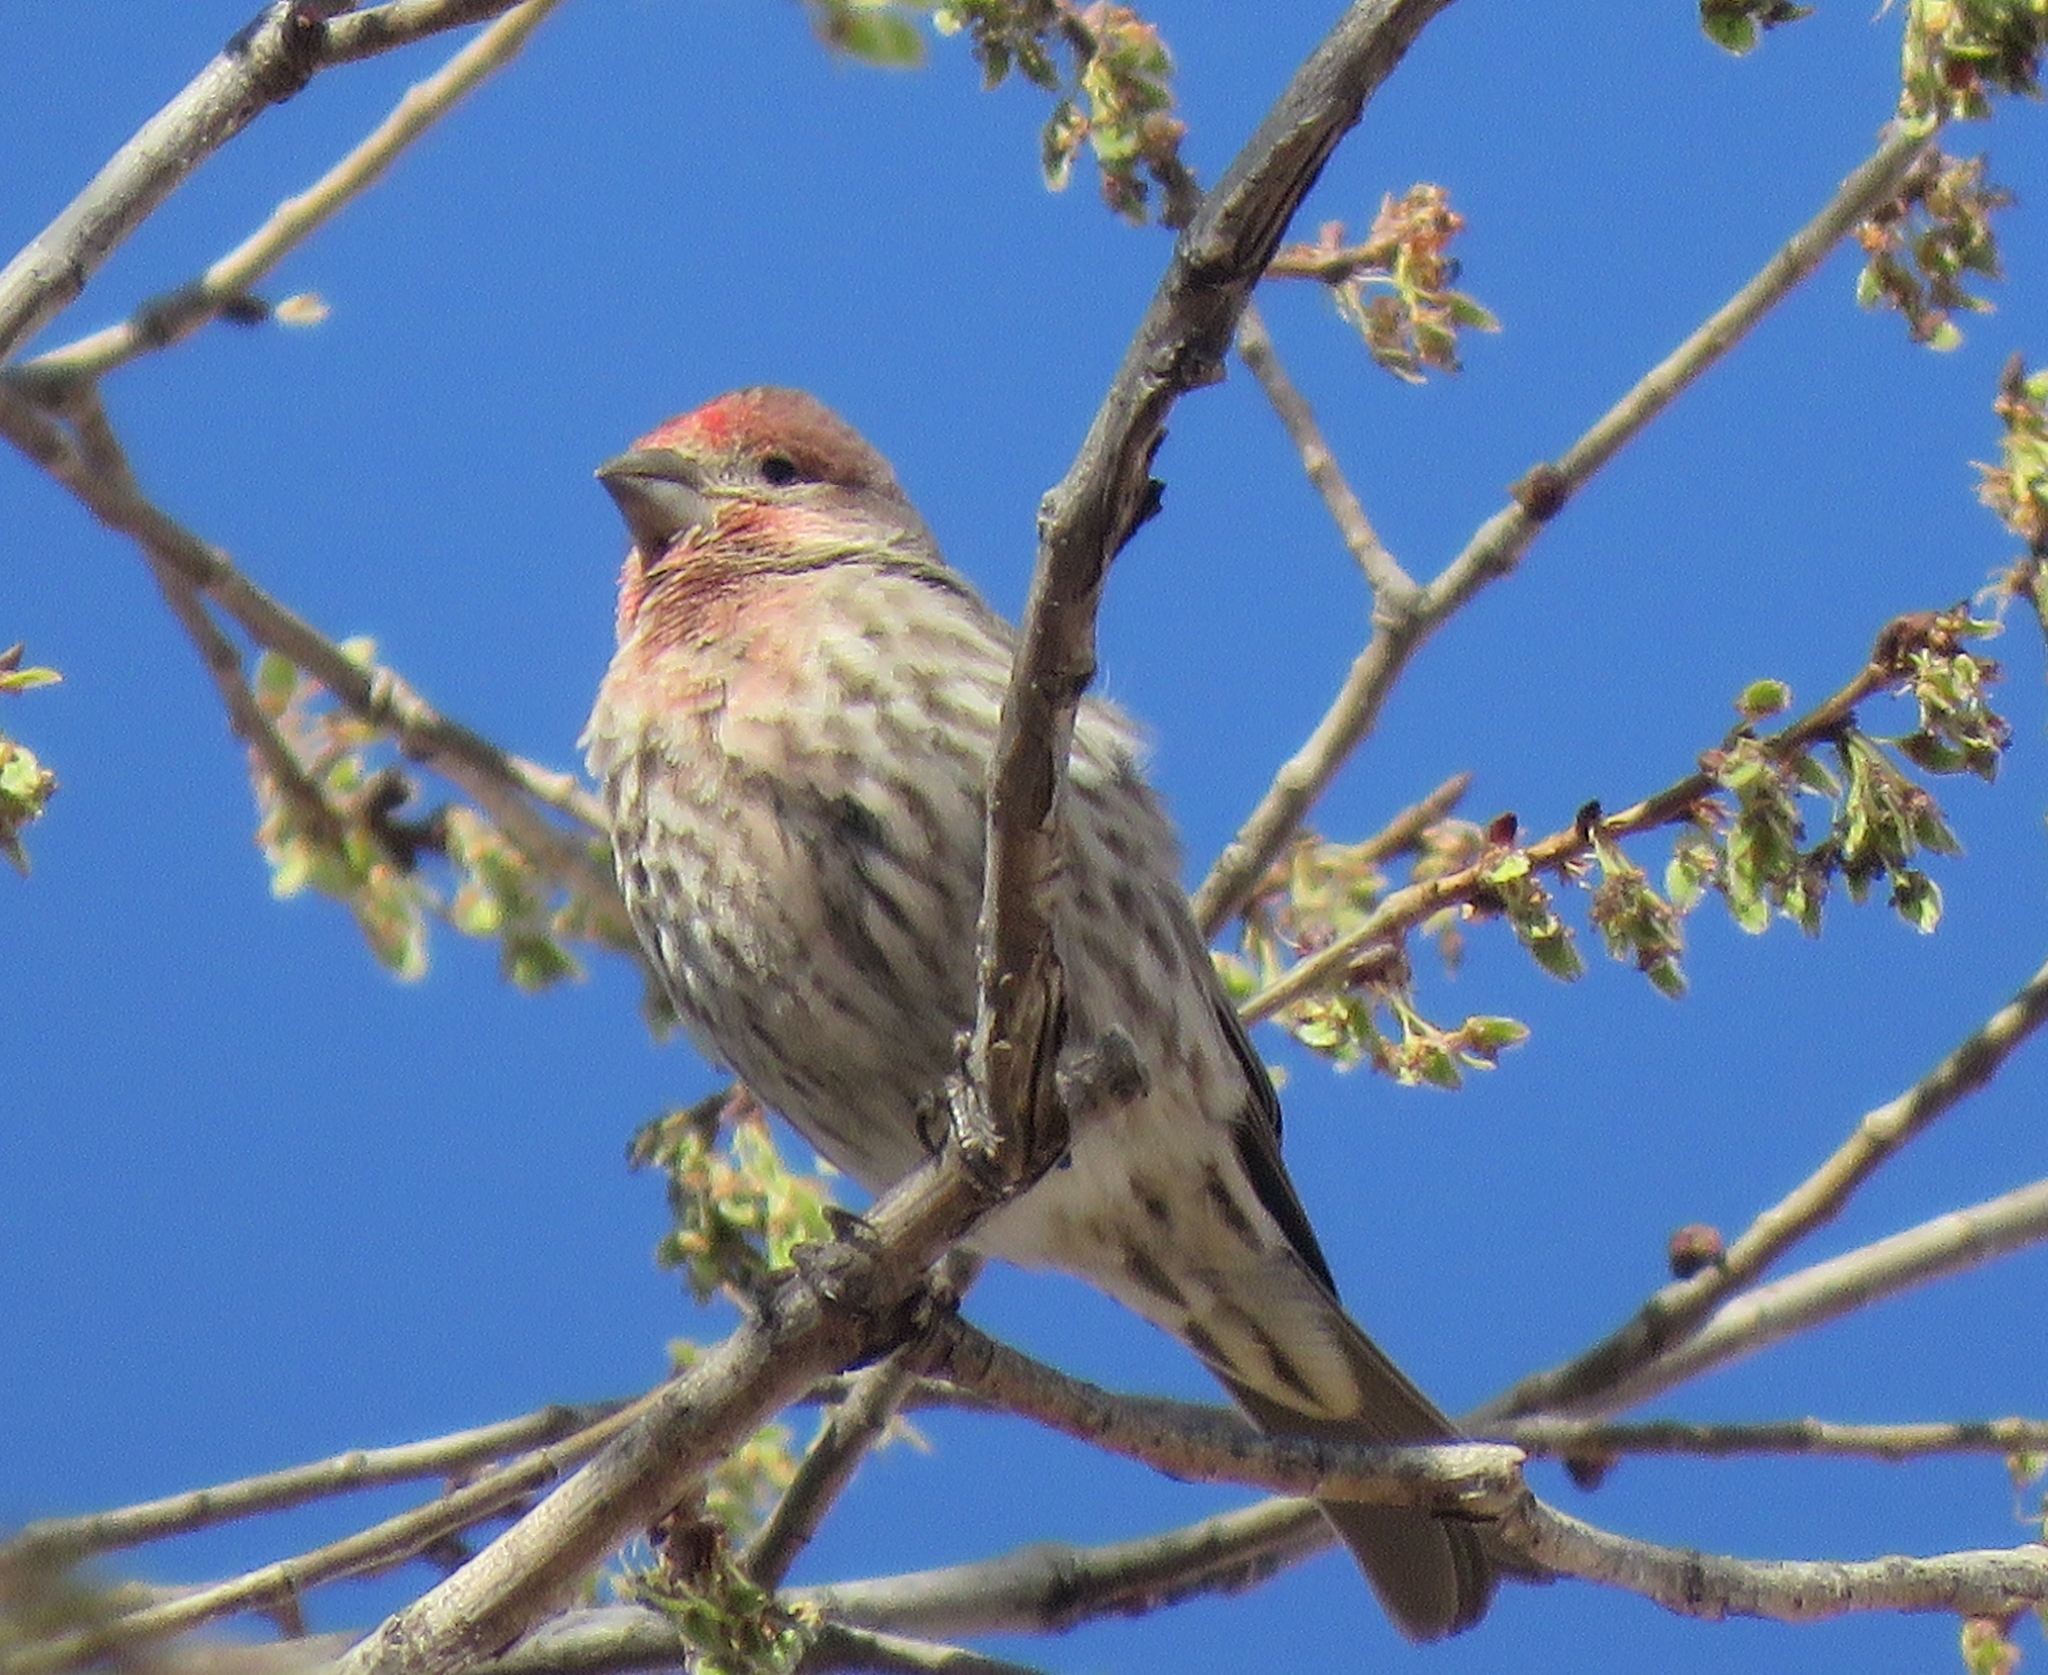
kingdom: Animalia
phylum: Chordata
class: Aves
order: Passeriformes
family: Fringillidae
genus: Haemorhous
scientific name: Haemorhous mexicanus
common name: House finch
